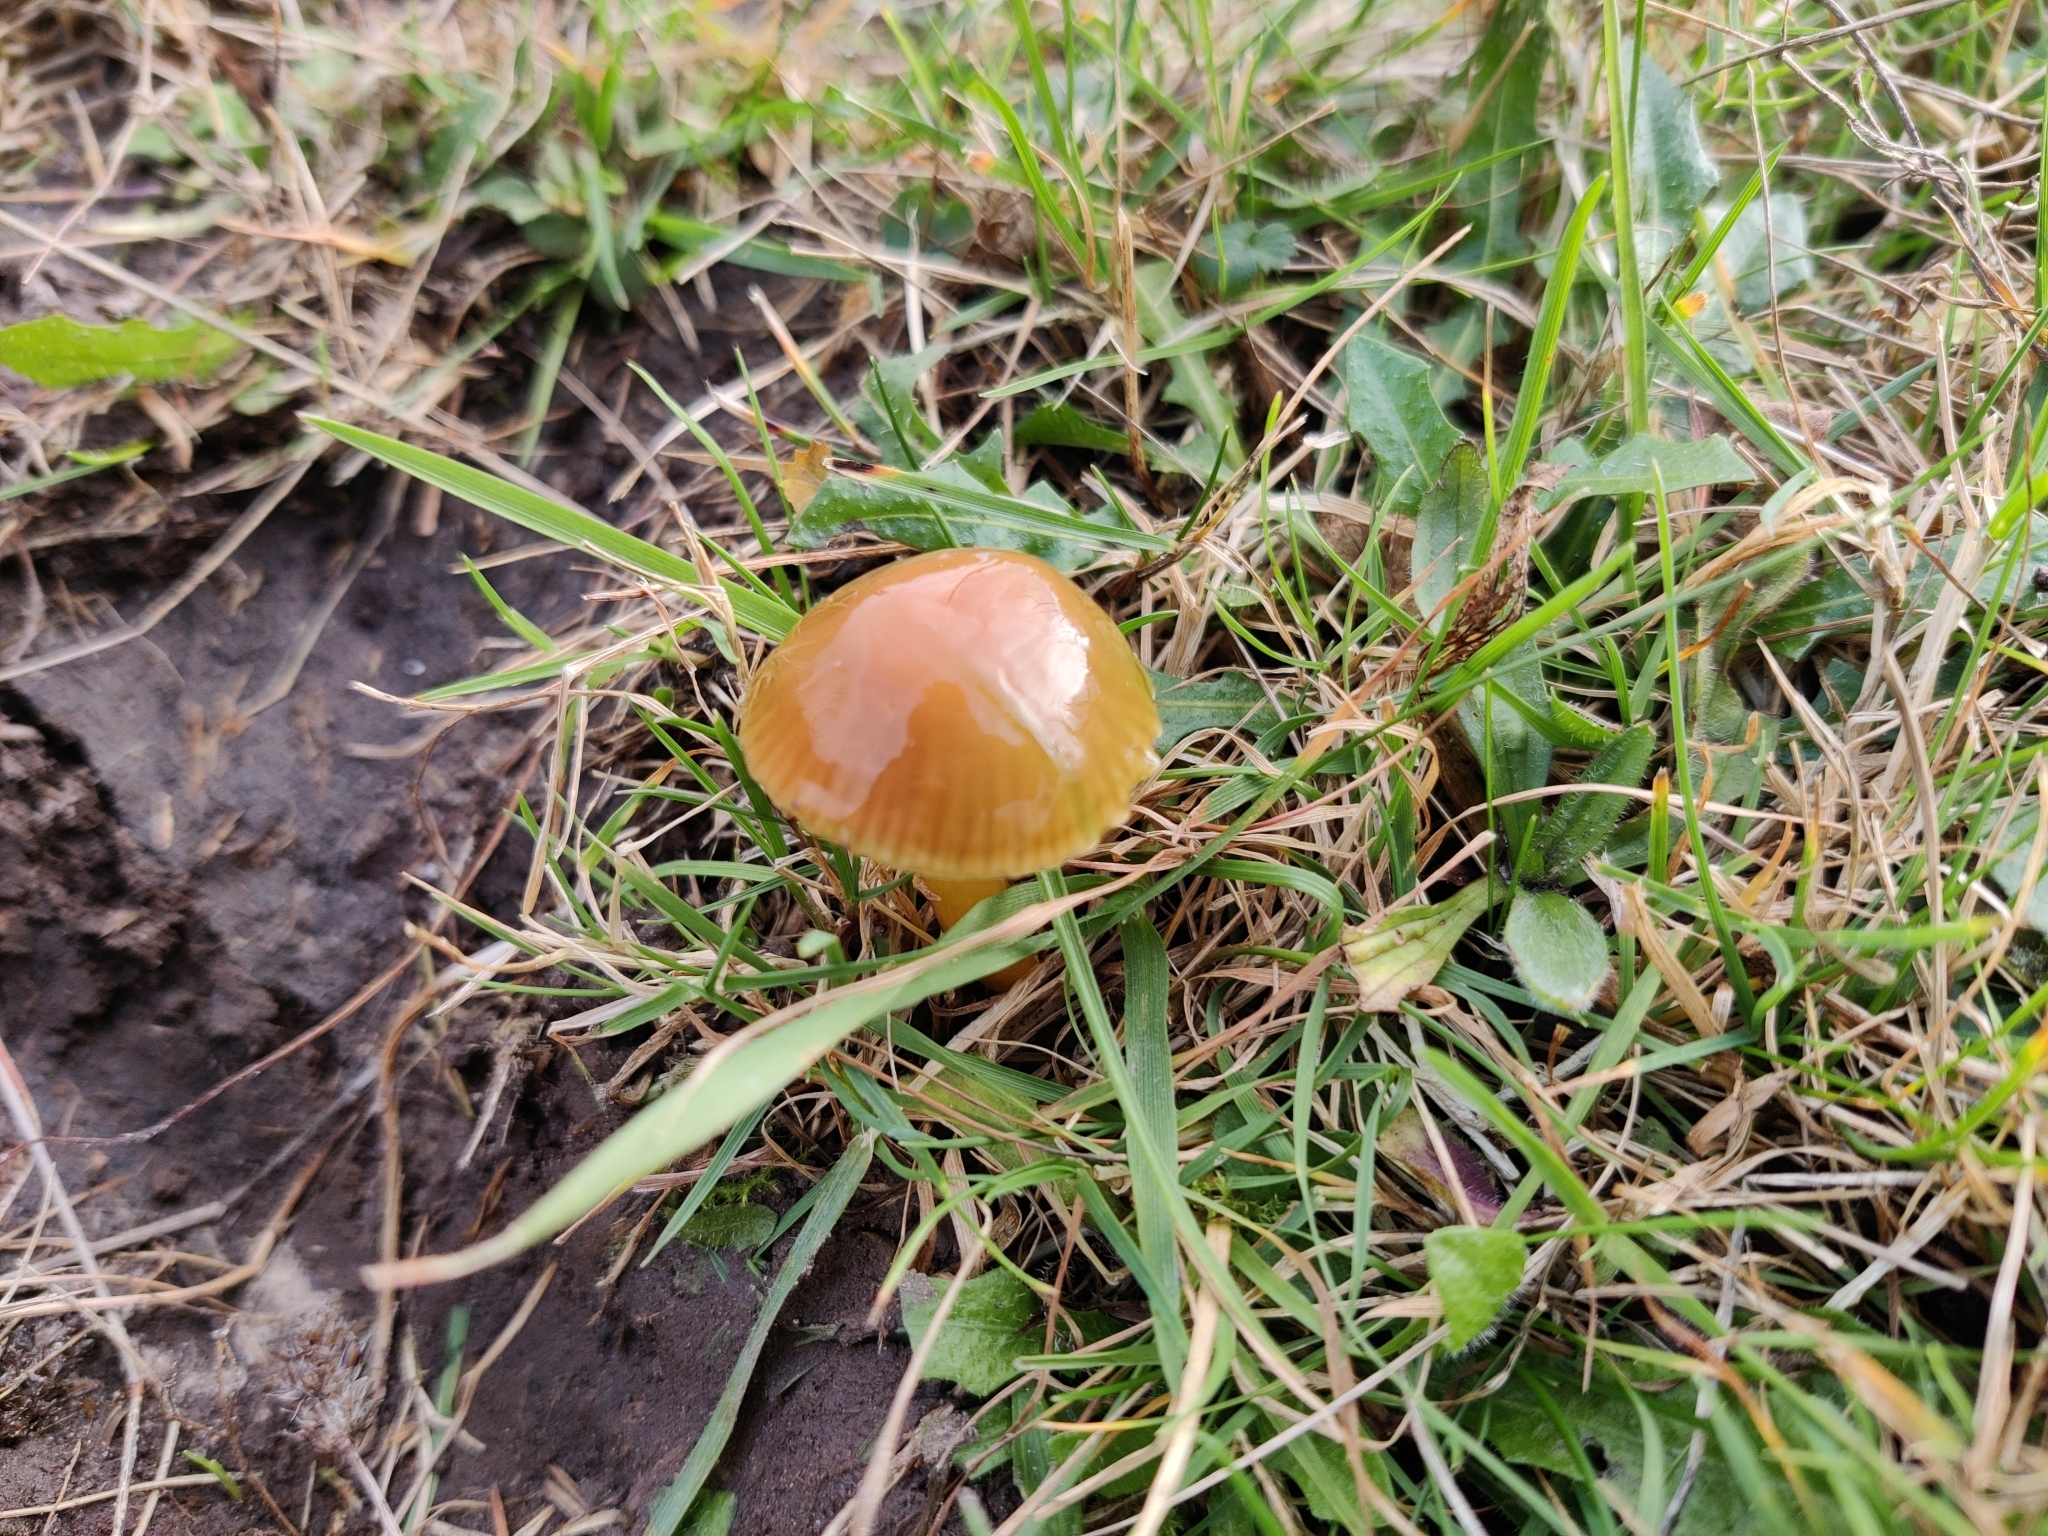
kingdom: Fungi
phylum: Basidiomycota
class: Agaricomycetes
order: Agaricales
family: Hygrophoraceae
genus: Gliophorus
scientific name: Gliophorus psittacinus
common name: Parrot wax-cap
